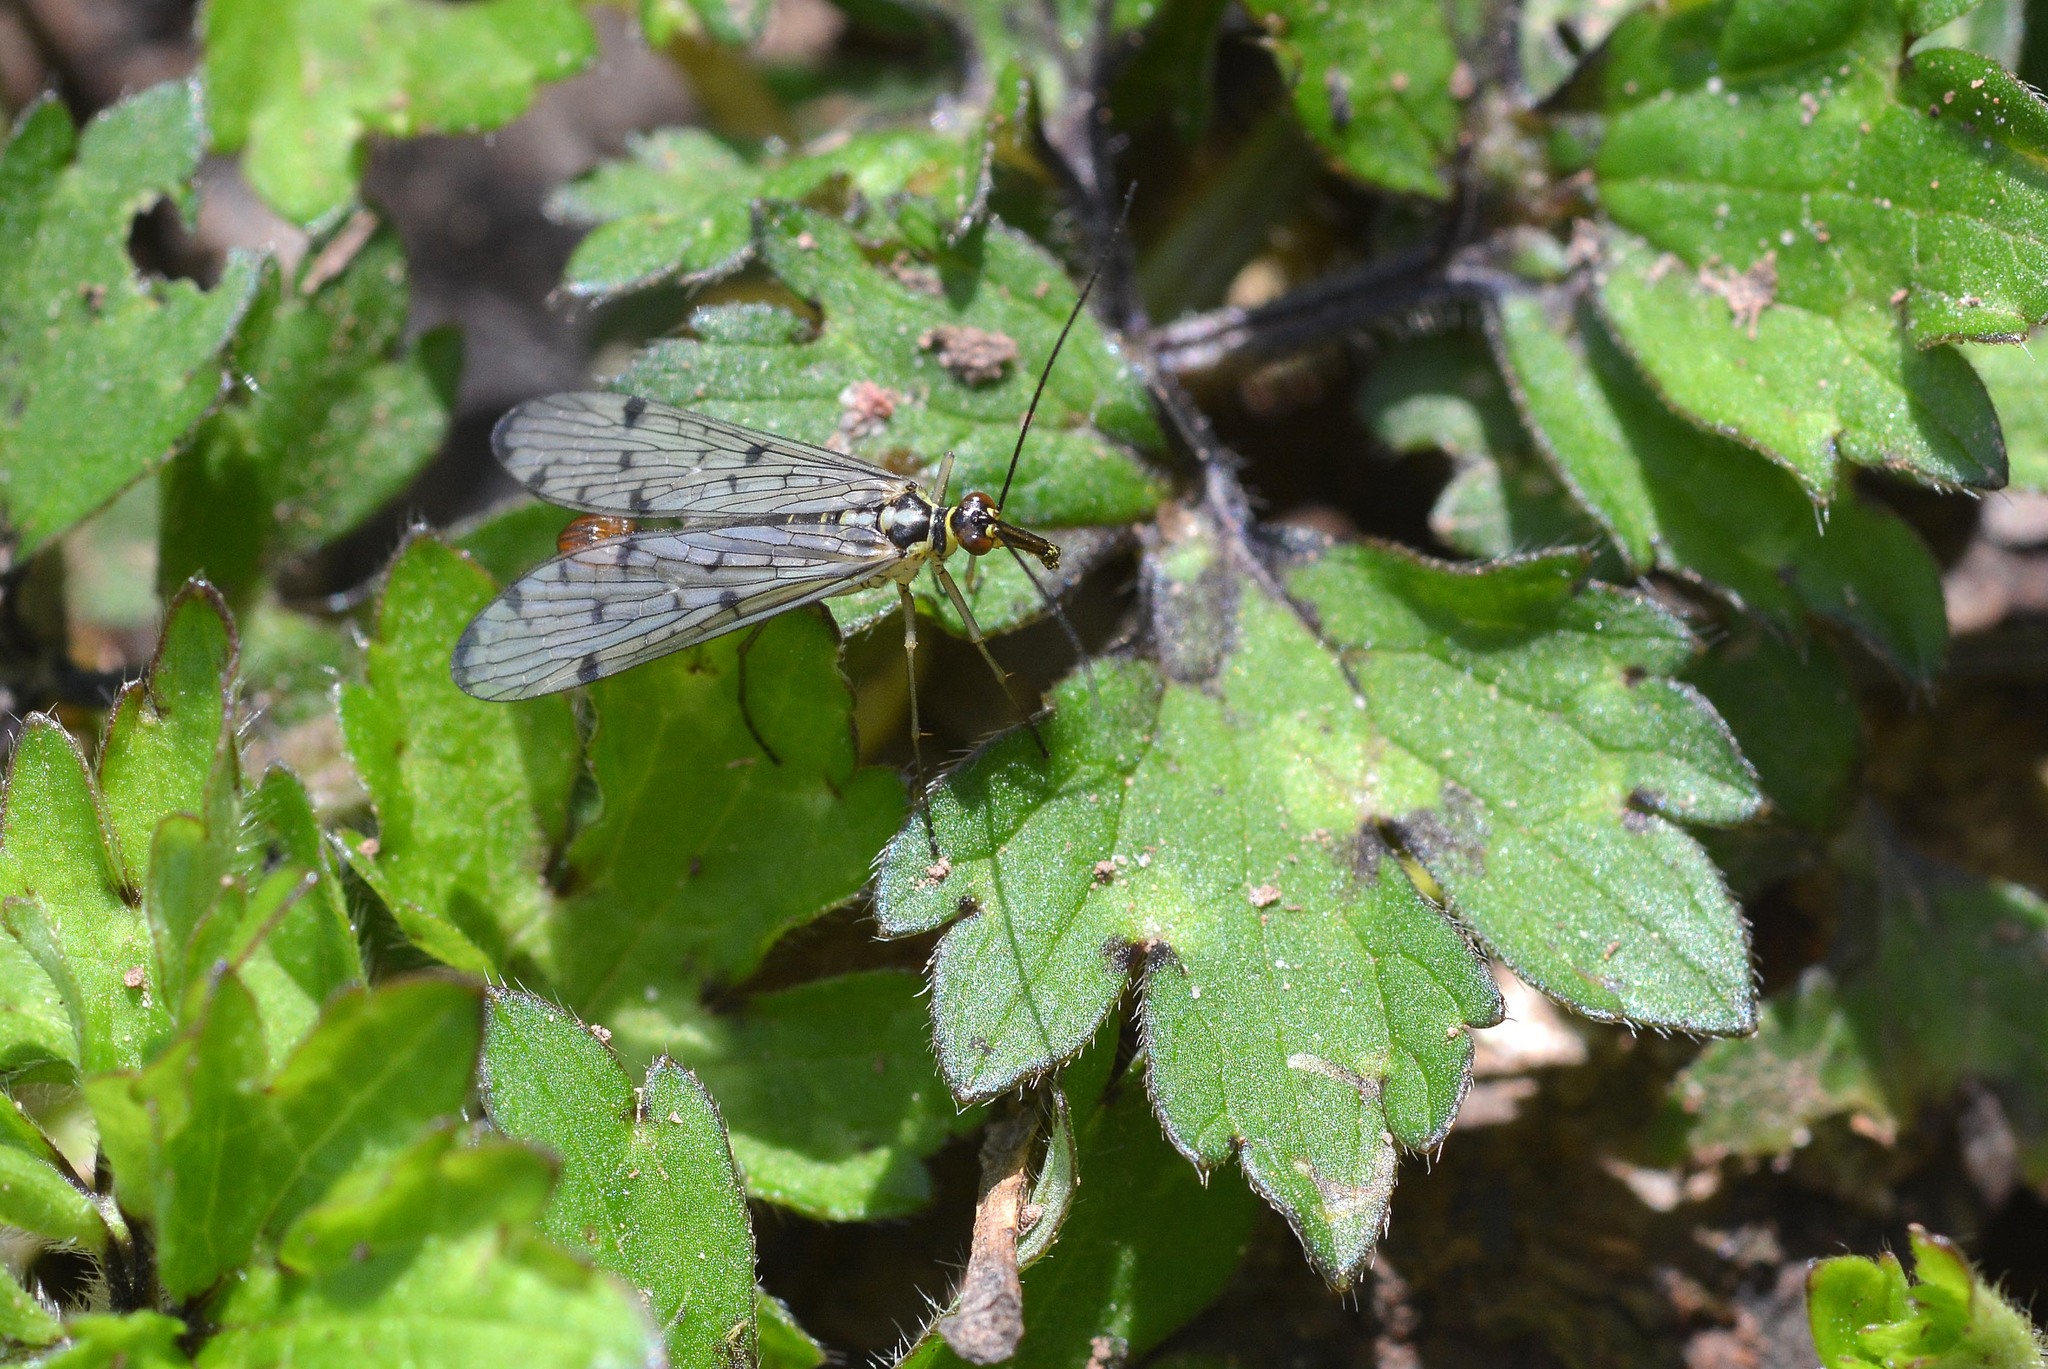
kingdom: Animalia
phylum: Arthropoda
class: Insecta
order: Mecoptera
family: Panorpidae
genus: Panorpa
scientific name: Panorpa germanica
